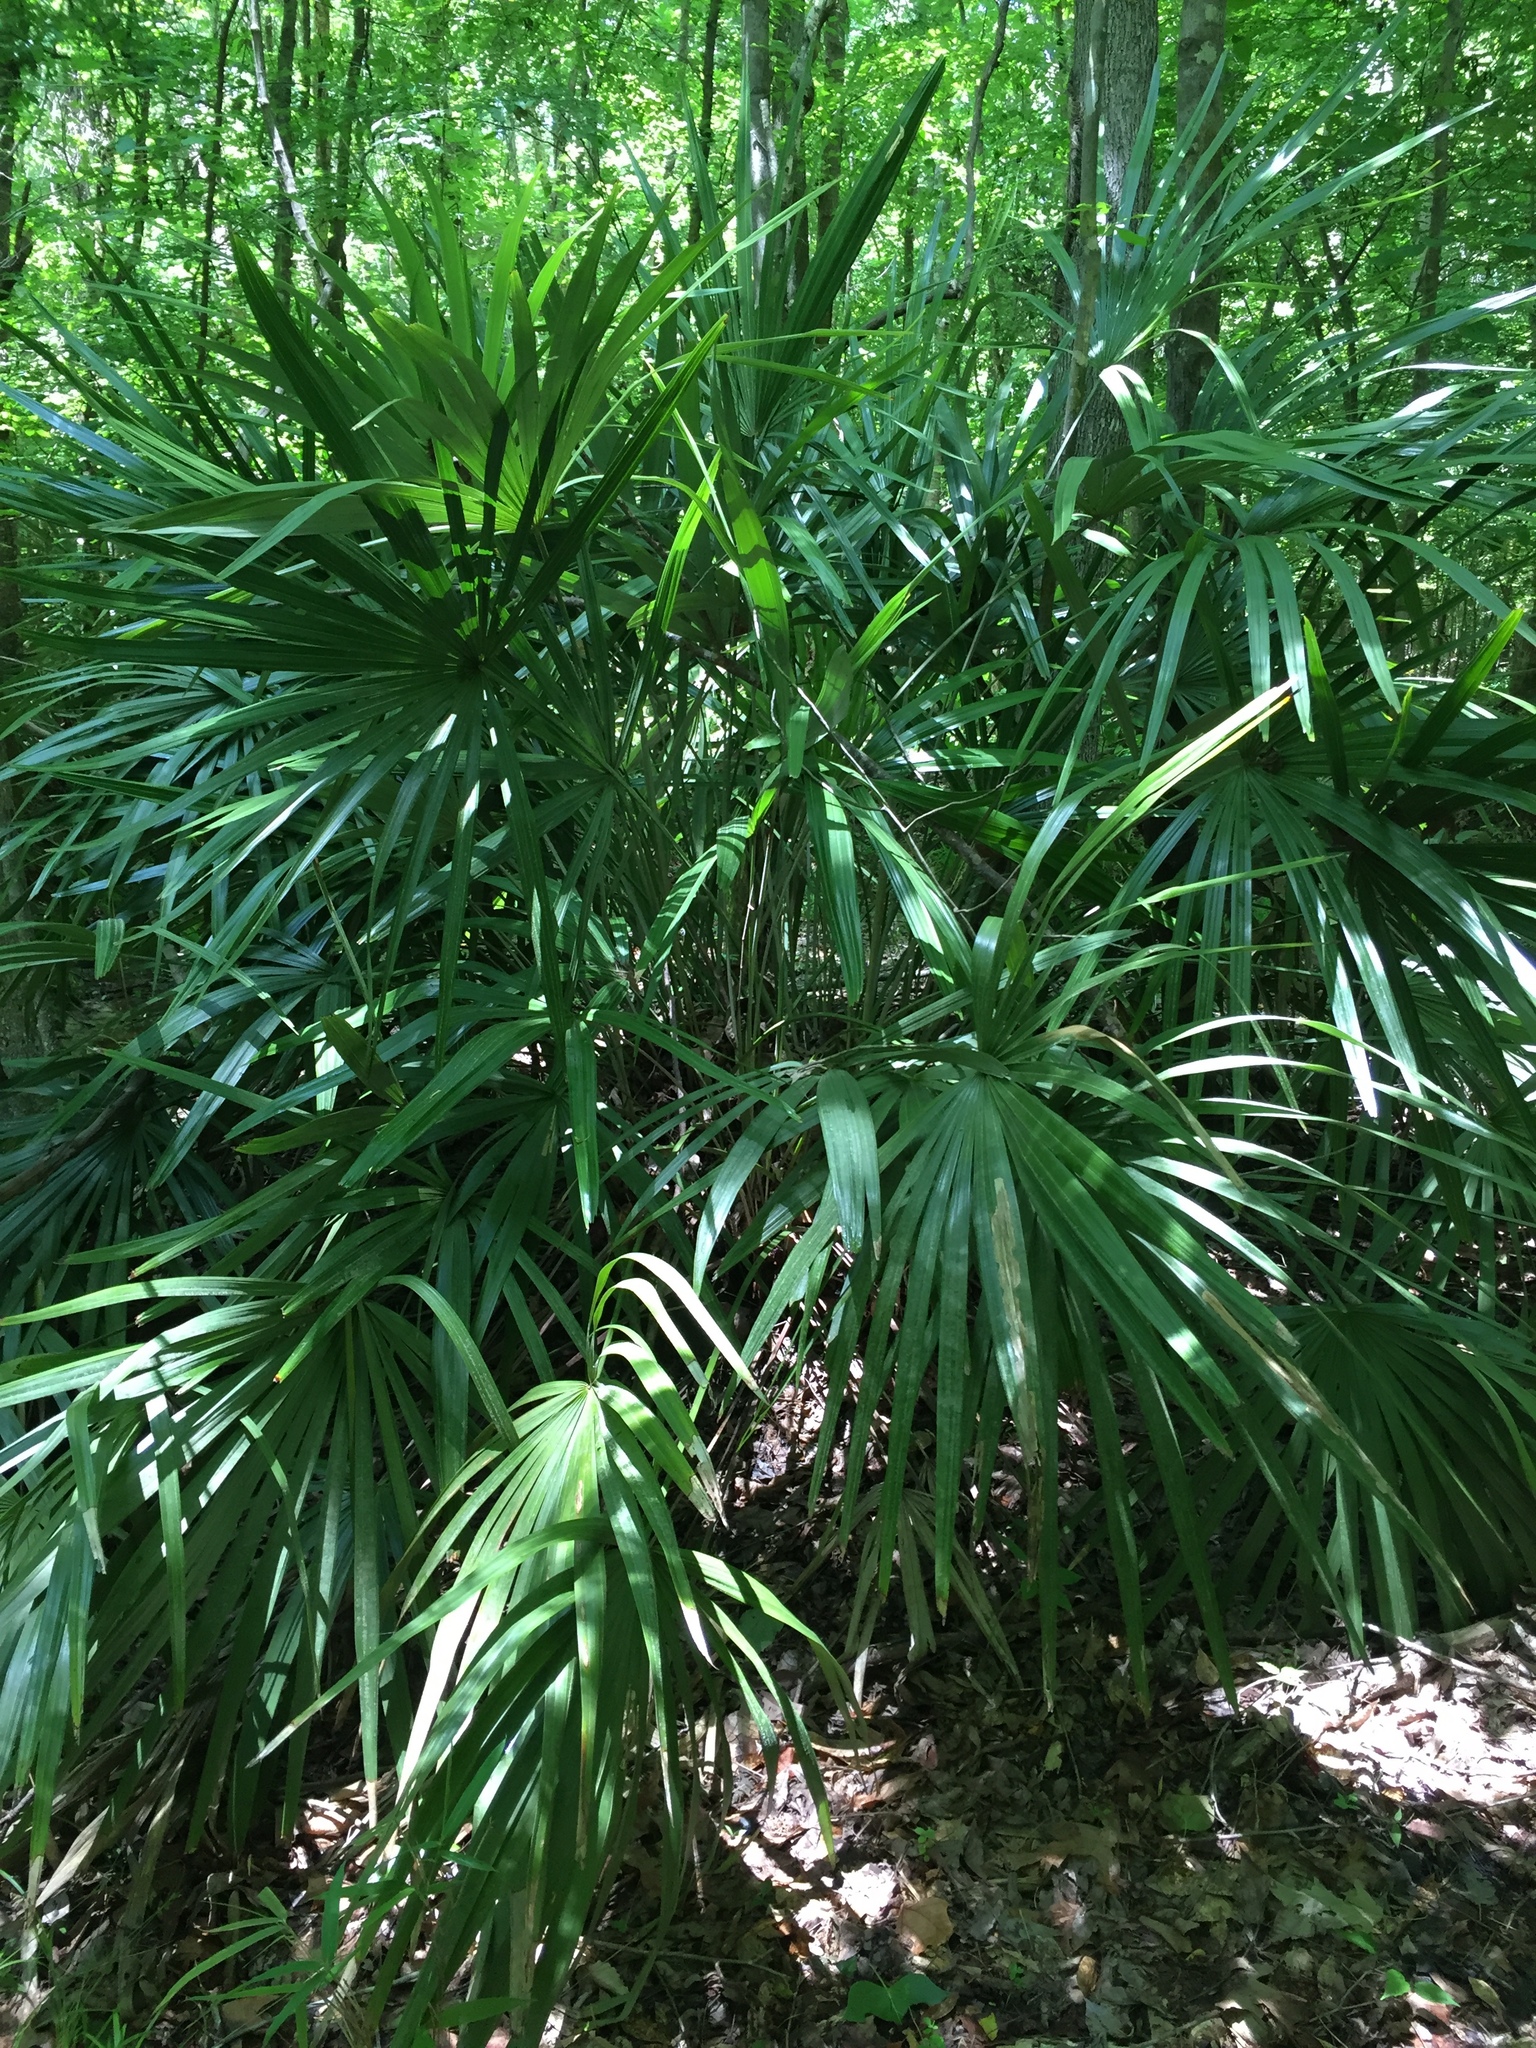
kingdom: Plantae
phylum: Tracheophyta
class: Liliopsida
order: Arecales
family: Arecaceae
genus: Rhapidophyllum
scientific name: Rhapidophyllum hystrix
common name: Porcupine palm
